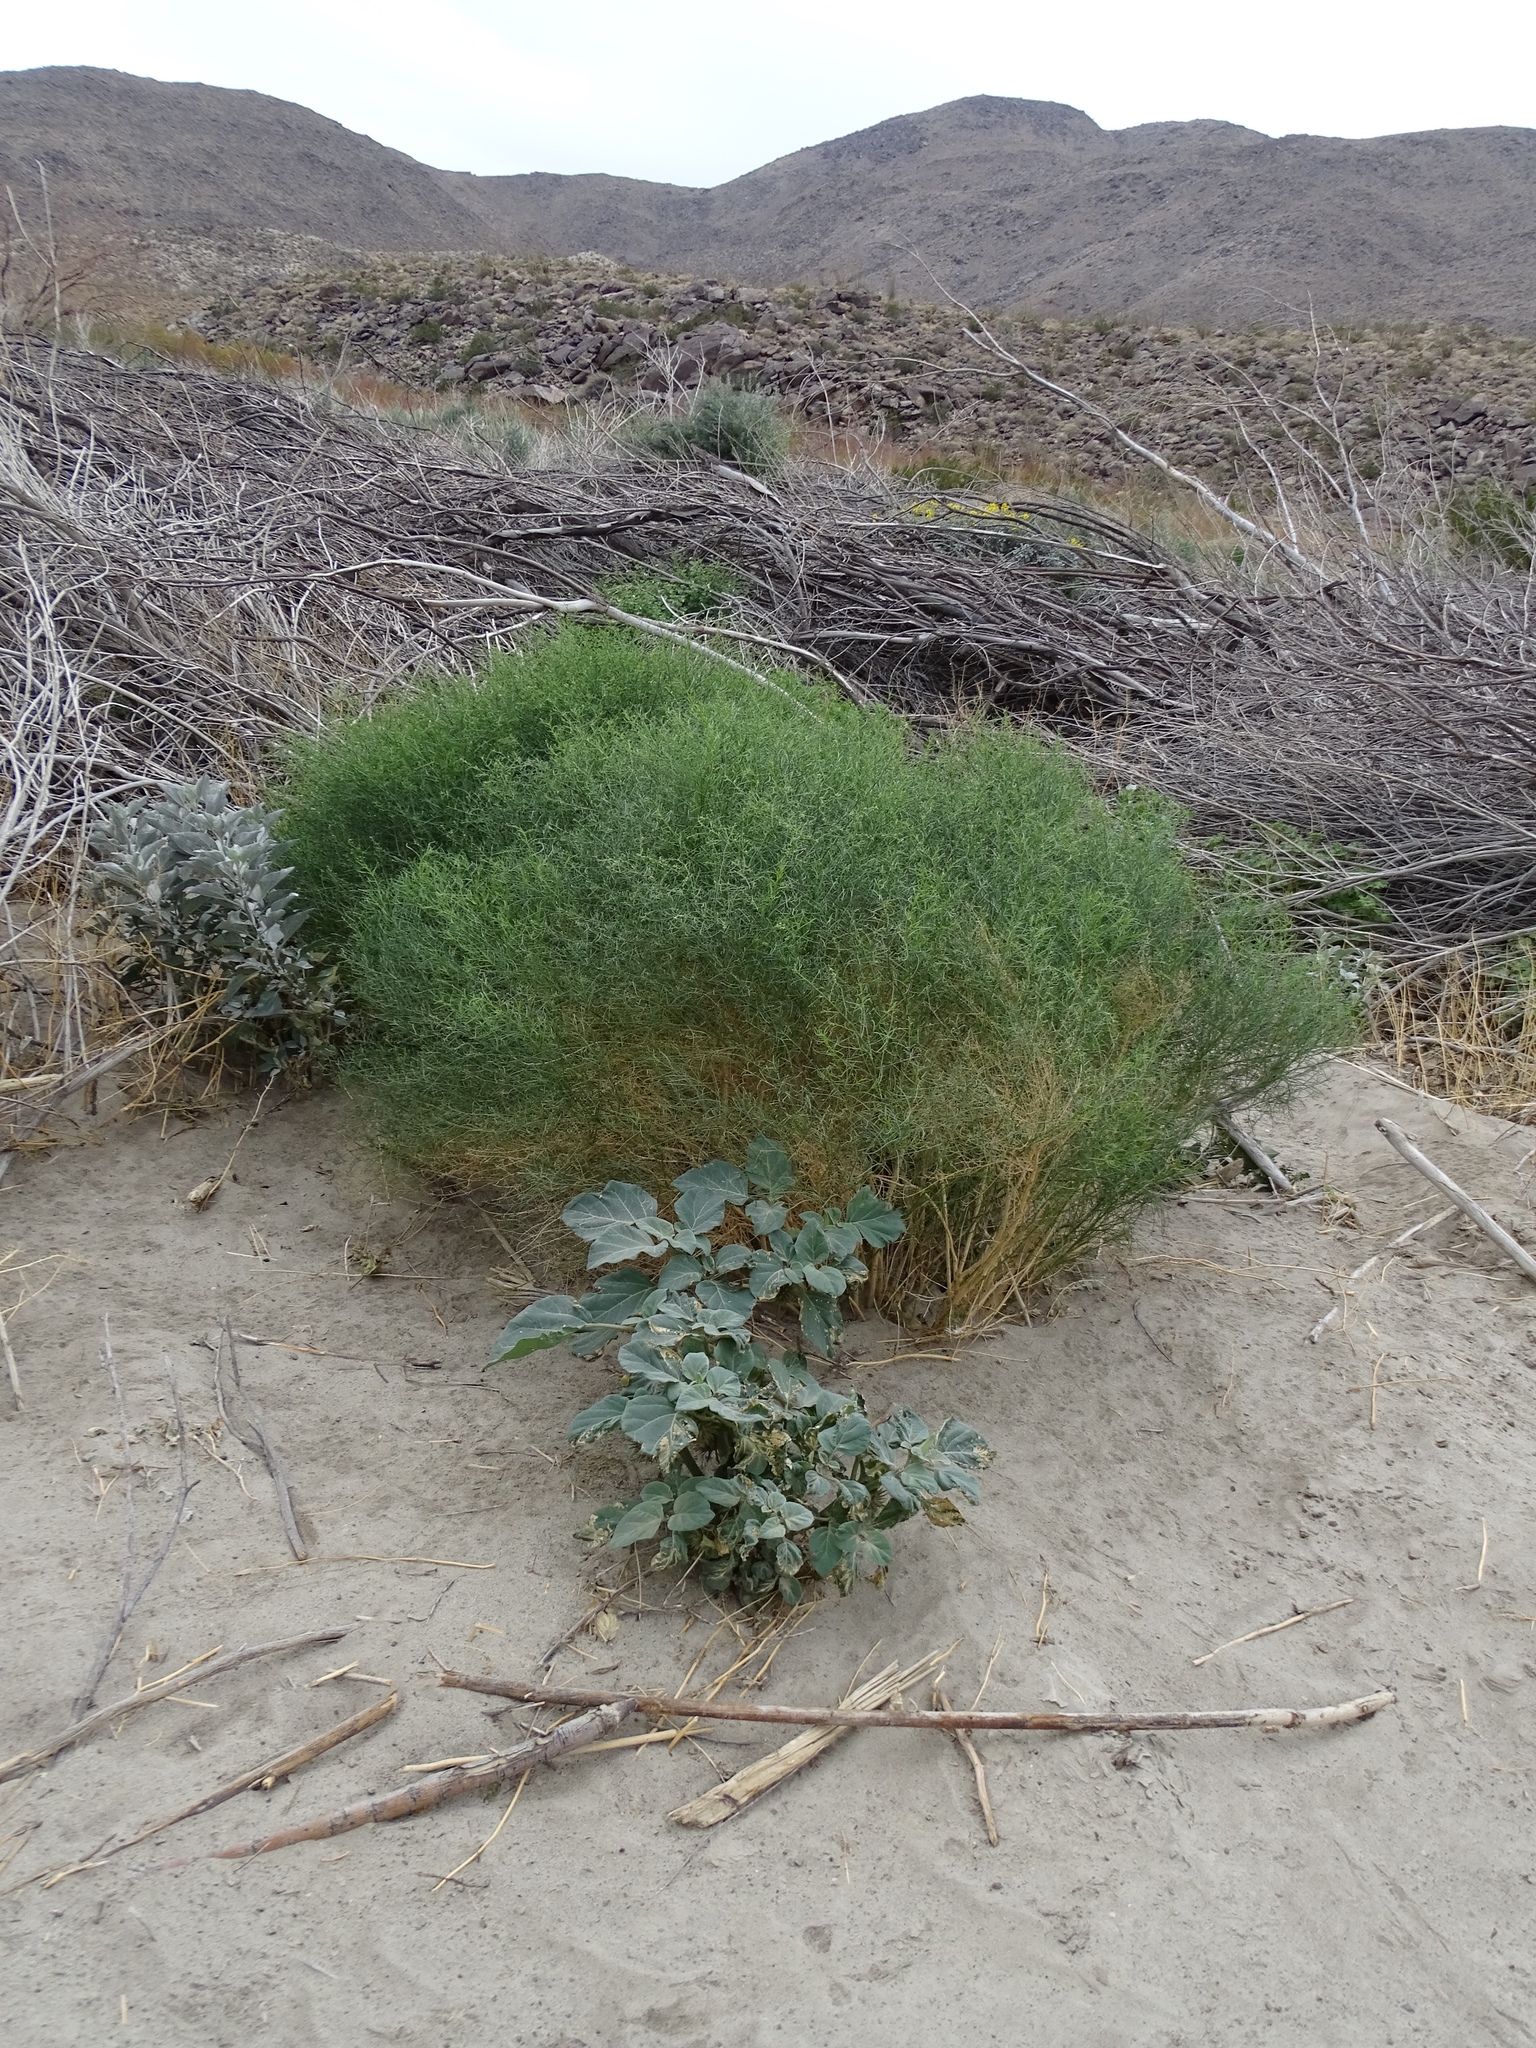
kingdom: Plantae
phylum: Tracheophyta
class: Magnoliopsida
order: Asterales
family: Asteraceae
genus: Ambrosia
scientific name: Ambrosia salsola
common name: Burrobrush
